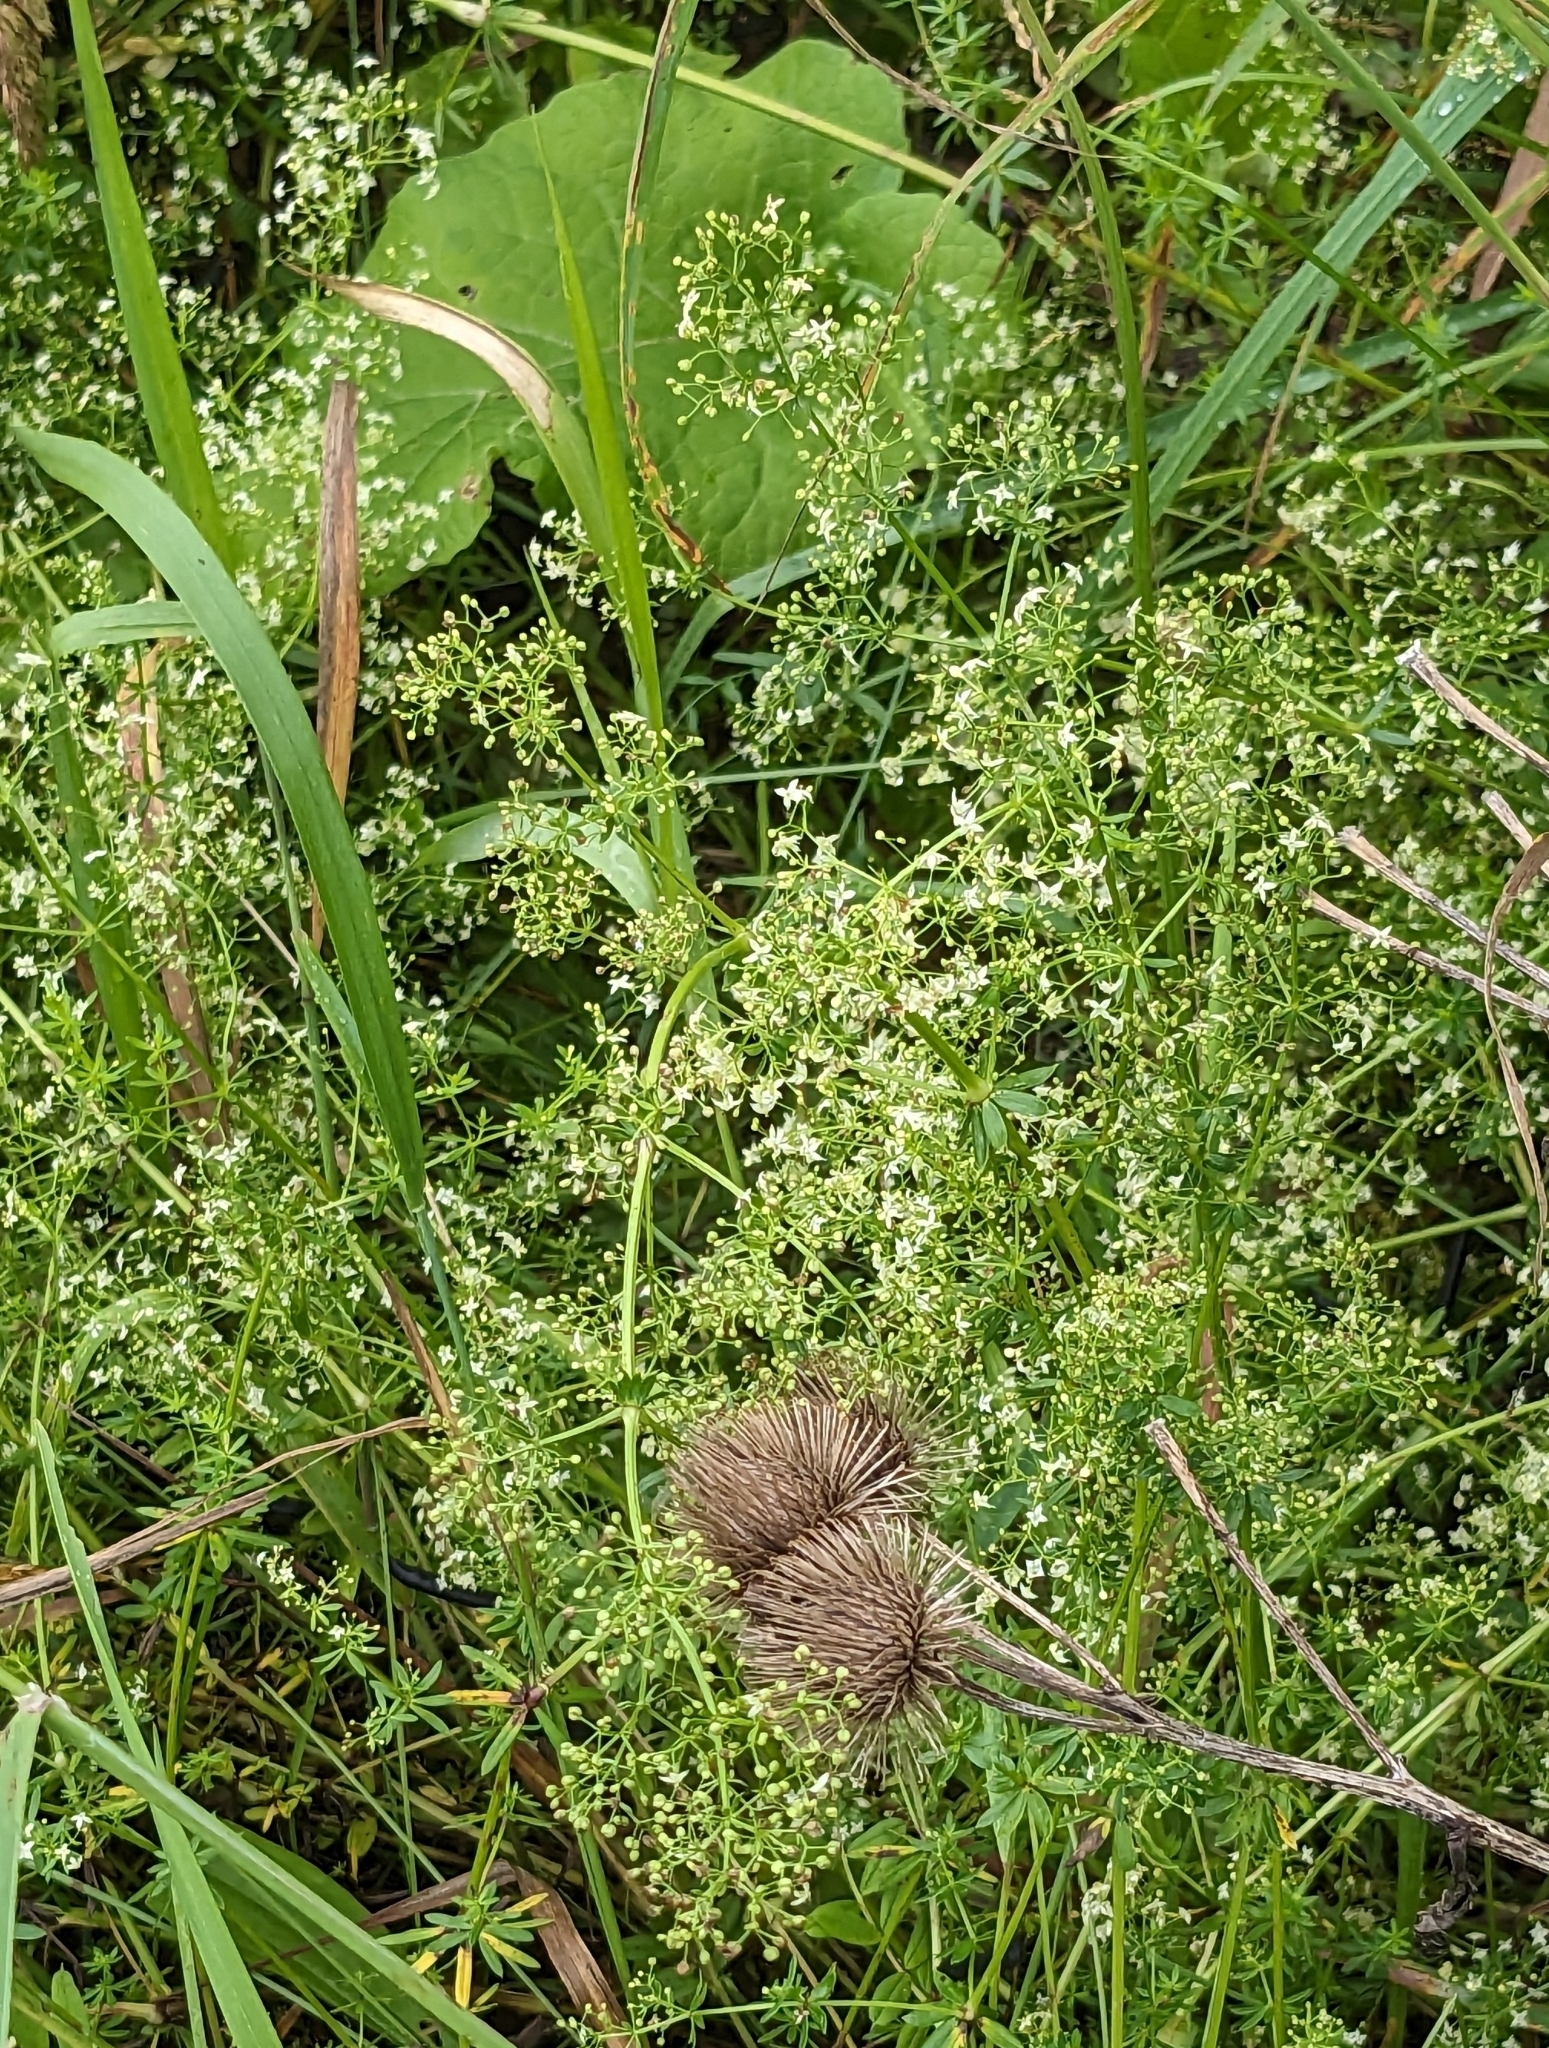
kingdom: Plantae
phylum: Tracheophyta
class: Magnoliopsida
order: Asterales
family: Asteraceae
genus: Arctium
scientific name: Arctium lappa
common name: Greater burdock
